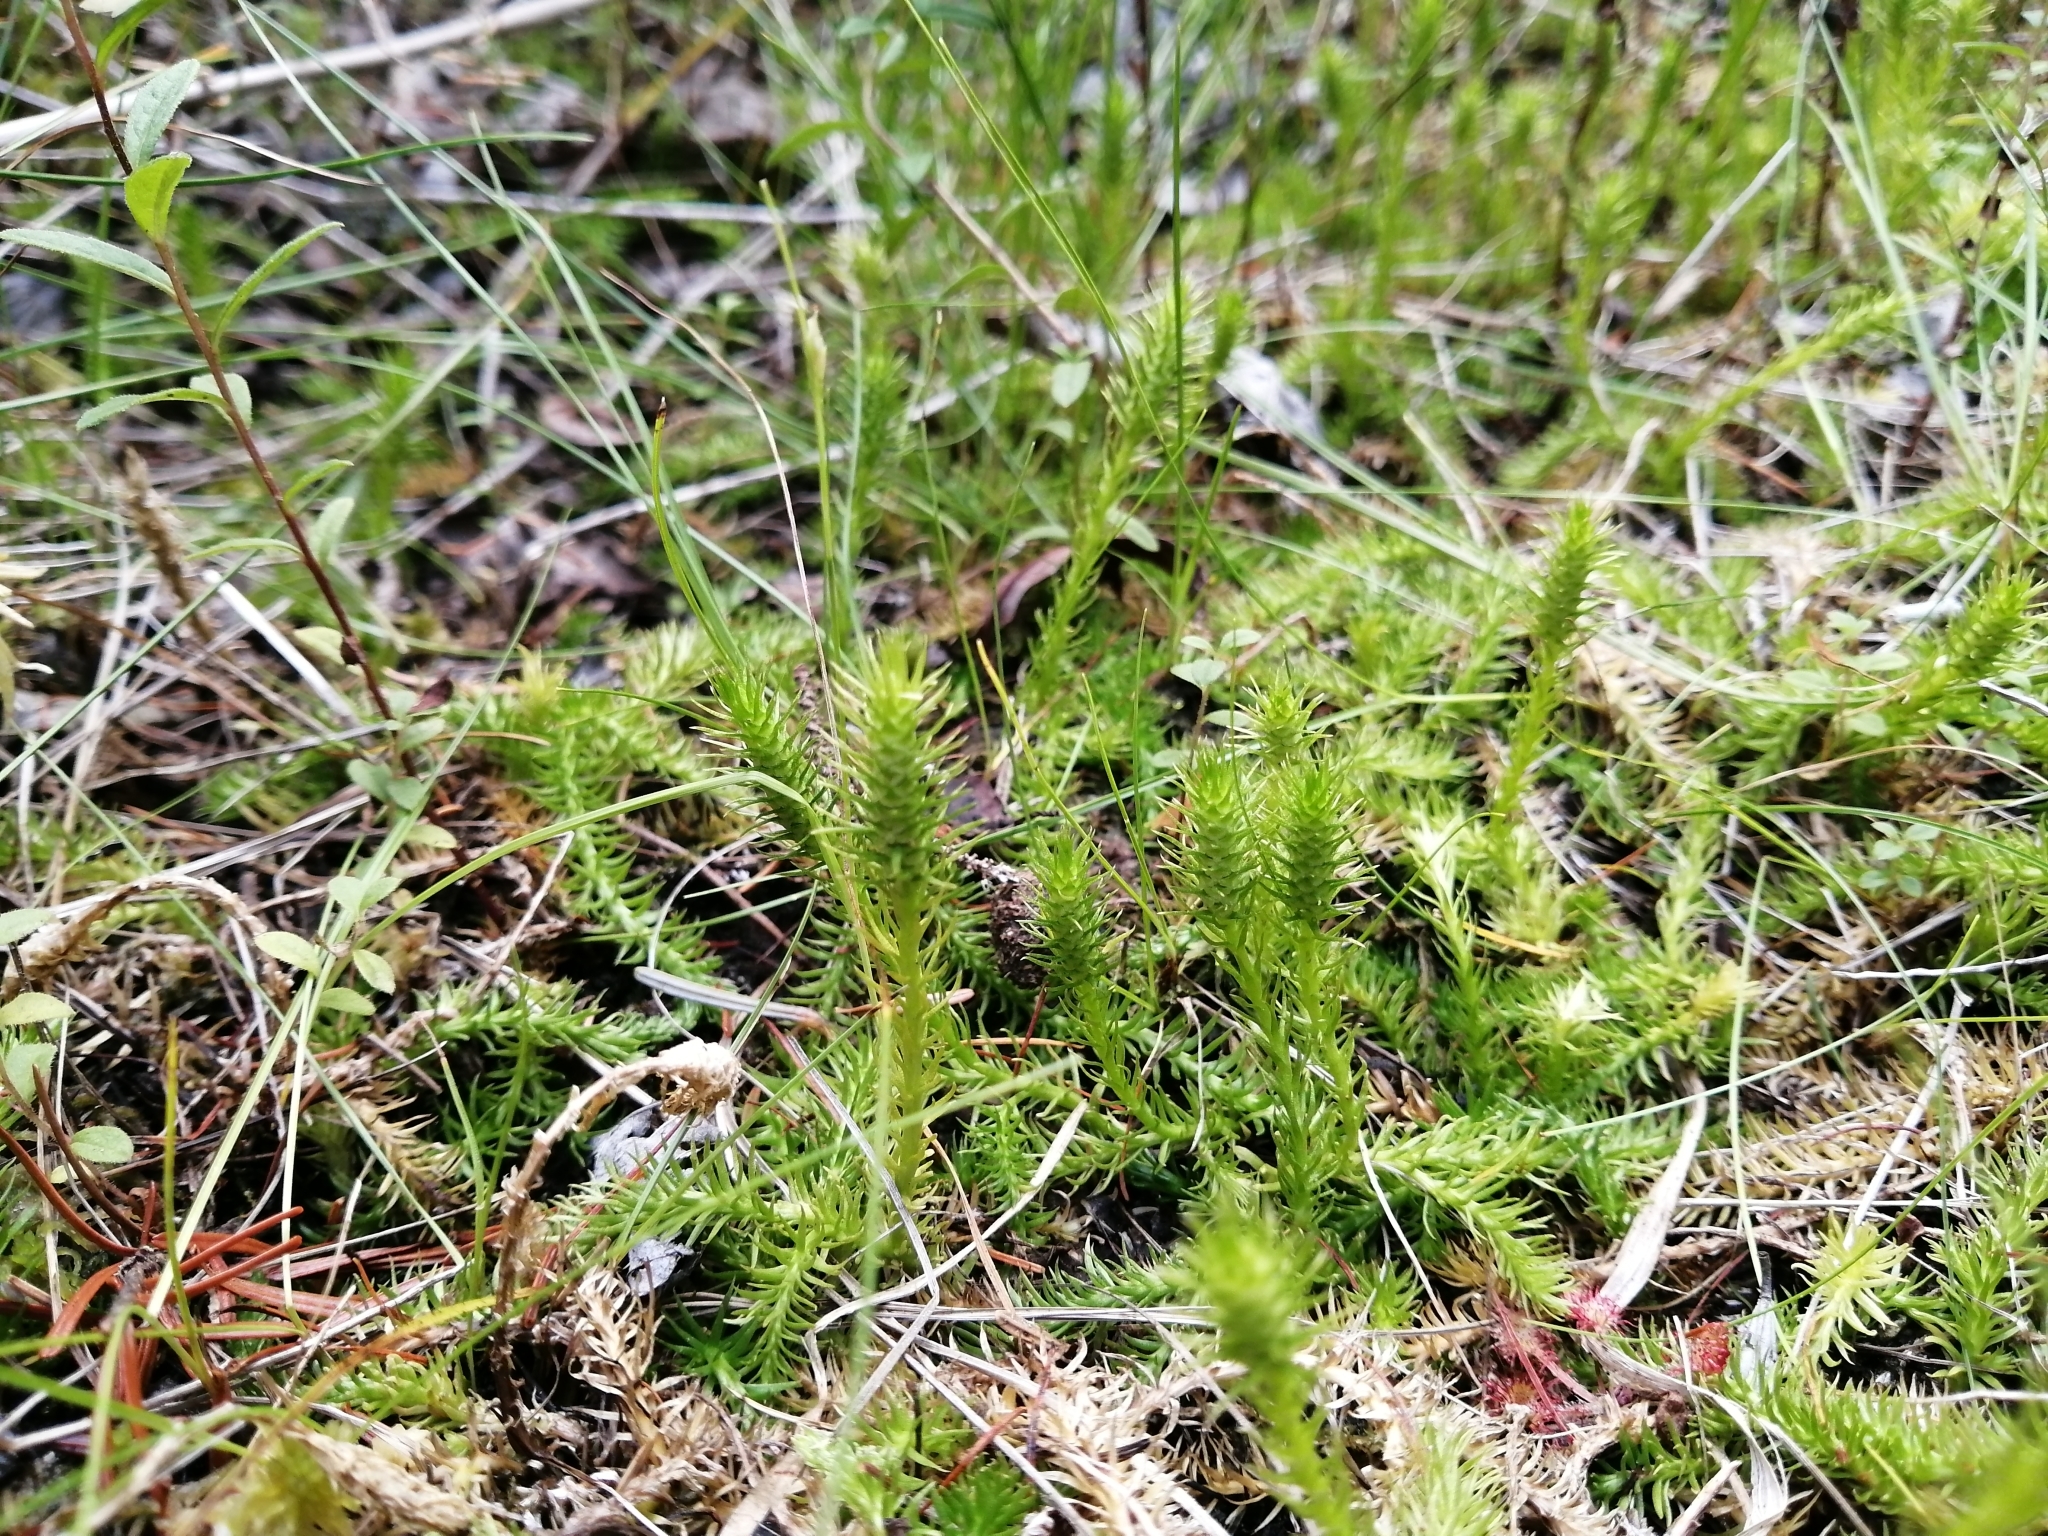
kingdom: Plantae
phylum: Tracheophyta
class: Lycopodiopsida
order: Lycopodiales
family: Lycopodiaceae
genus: Lycopodiella
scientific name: Lycopodiella inundata
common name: Marsh clubmoss
